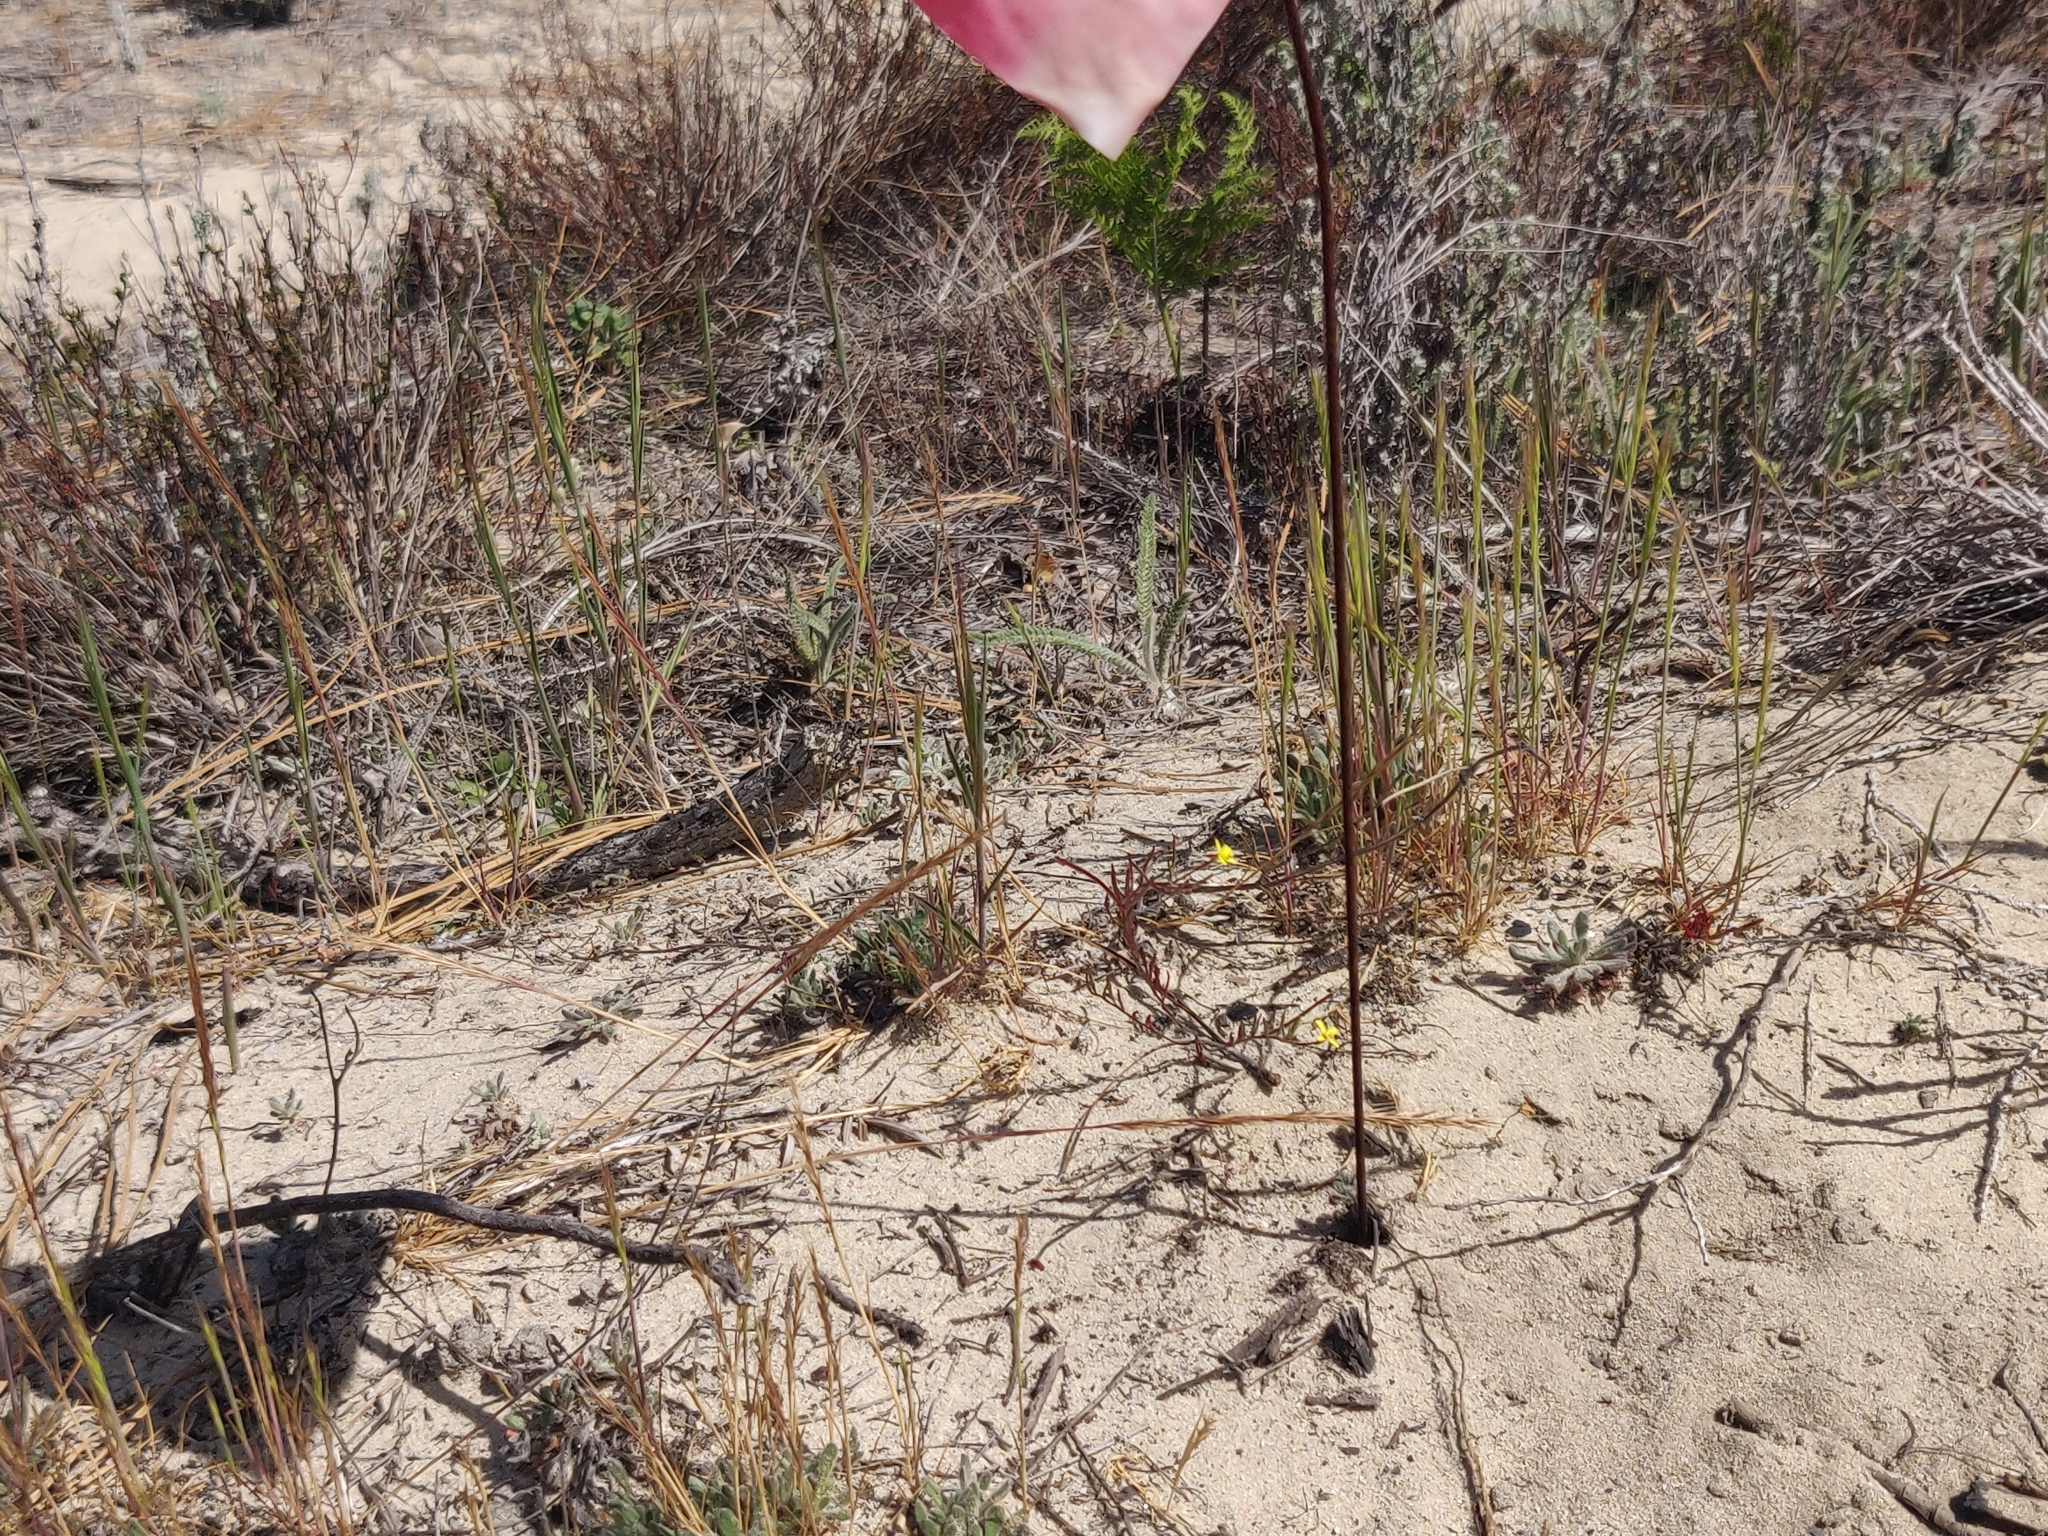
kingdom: Plantae
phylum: Tracheophyta
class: Magnoliopsida
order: Myrtales
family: Onagraceae
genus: Camissonia
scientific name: Camissonia strigulosa
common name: Contorted-primrose
